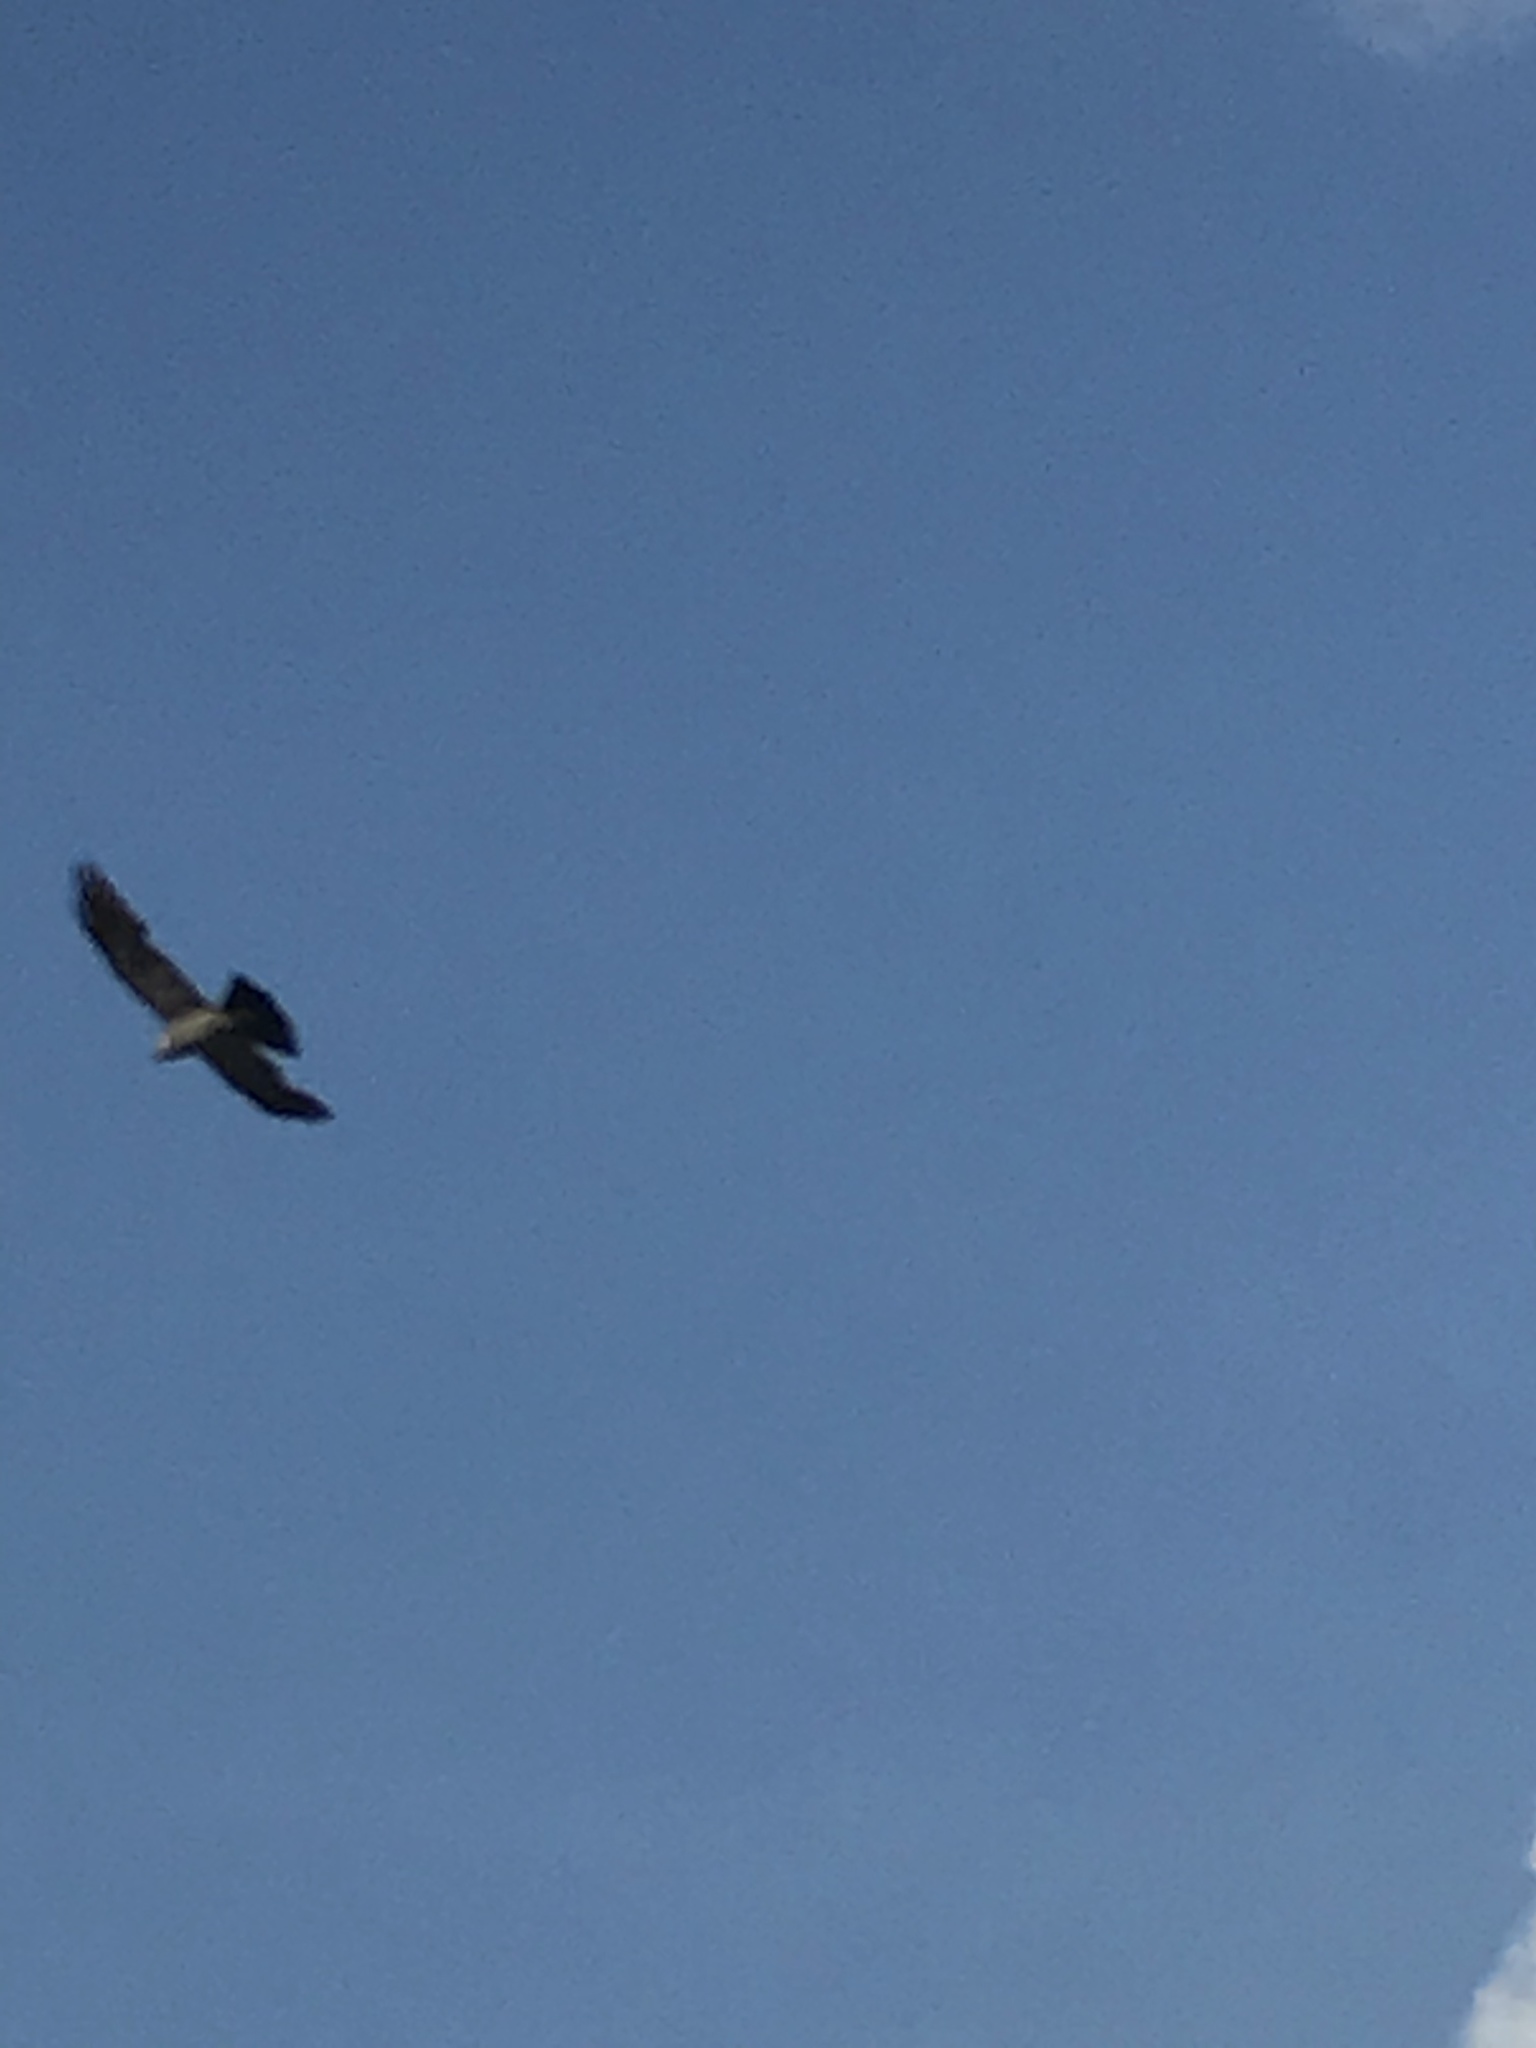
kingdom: Animalia
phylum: Chordata
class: Aves
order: Accipitriformes
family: Accipitridae
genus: Ictinia
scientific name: Ictinia mississippiensis
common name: Mississippi kite
